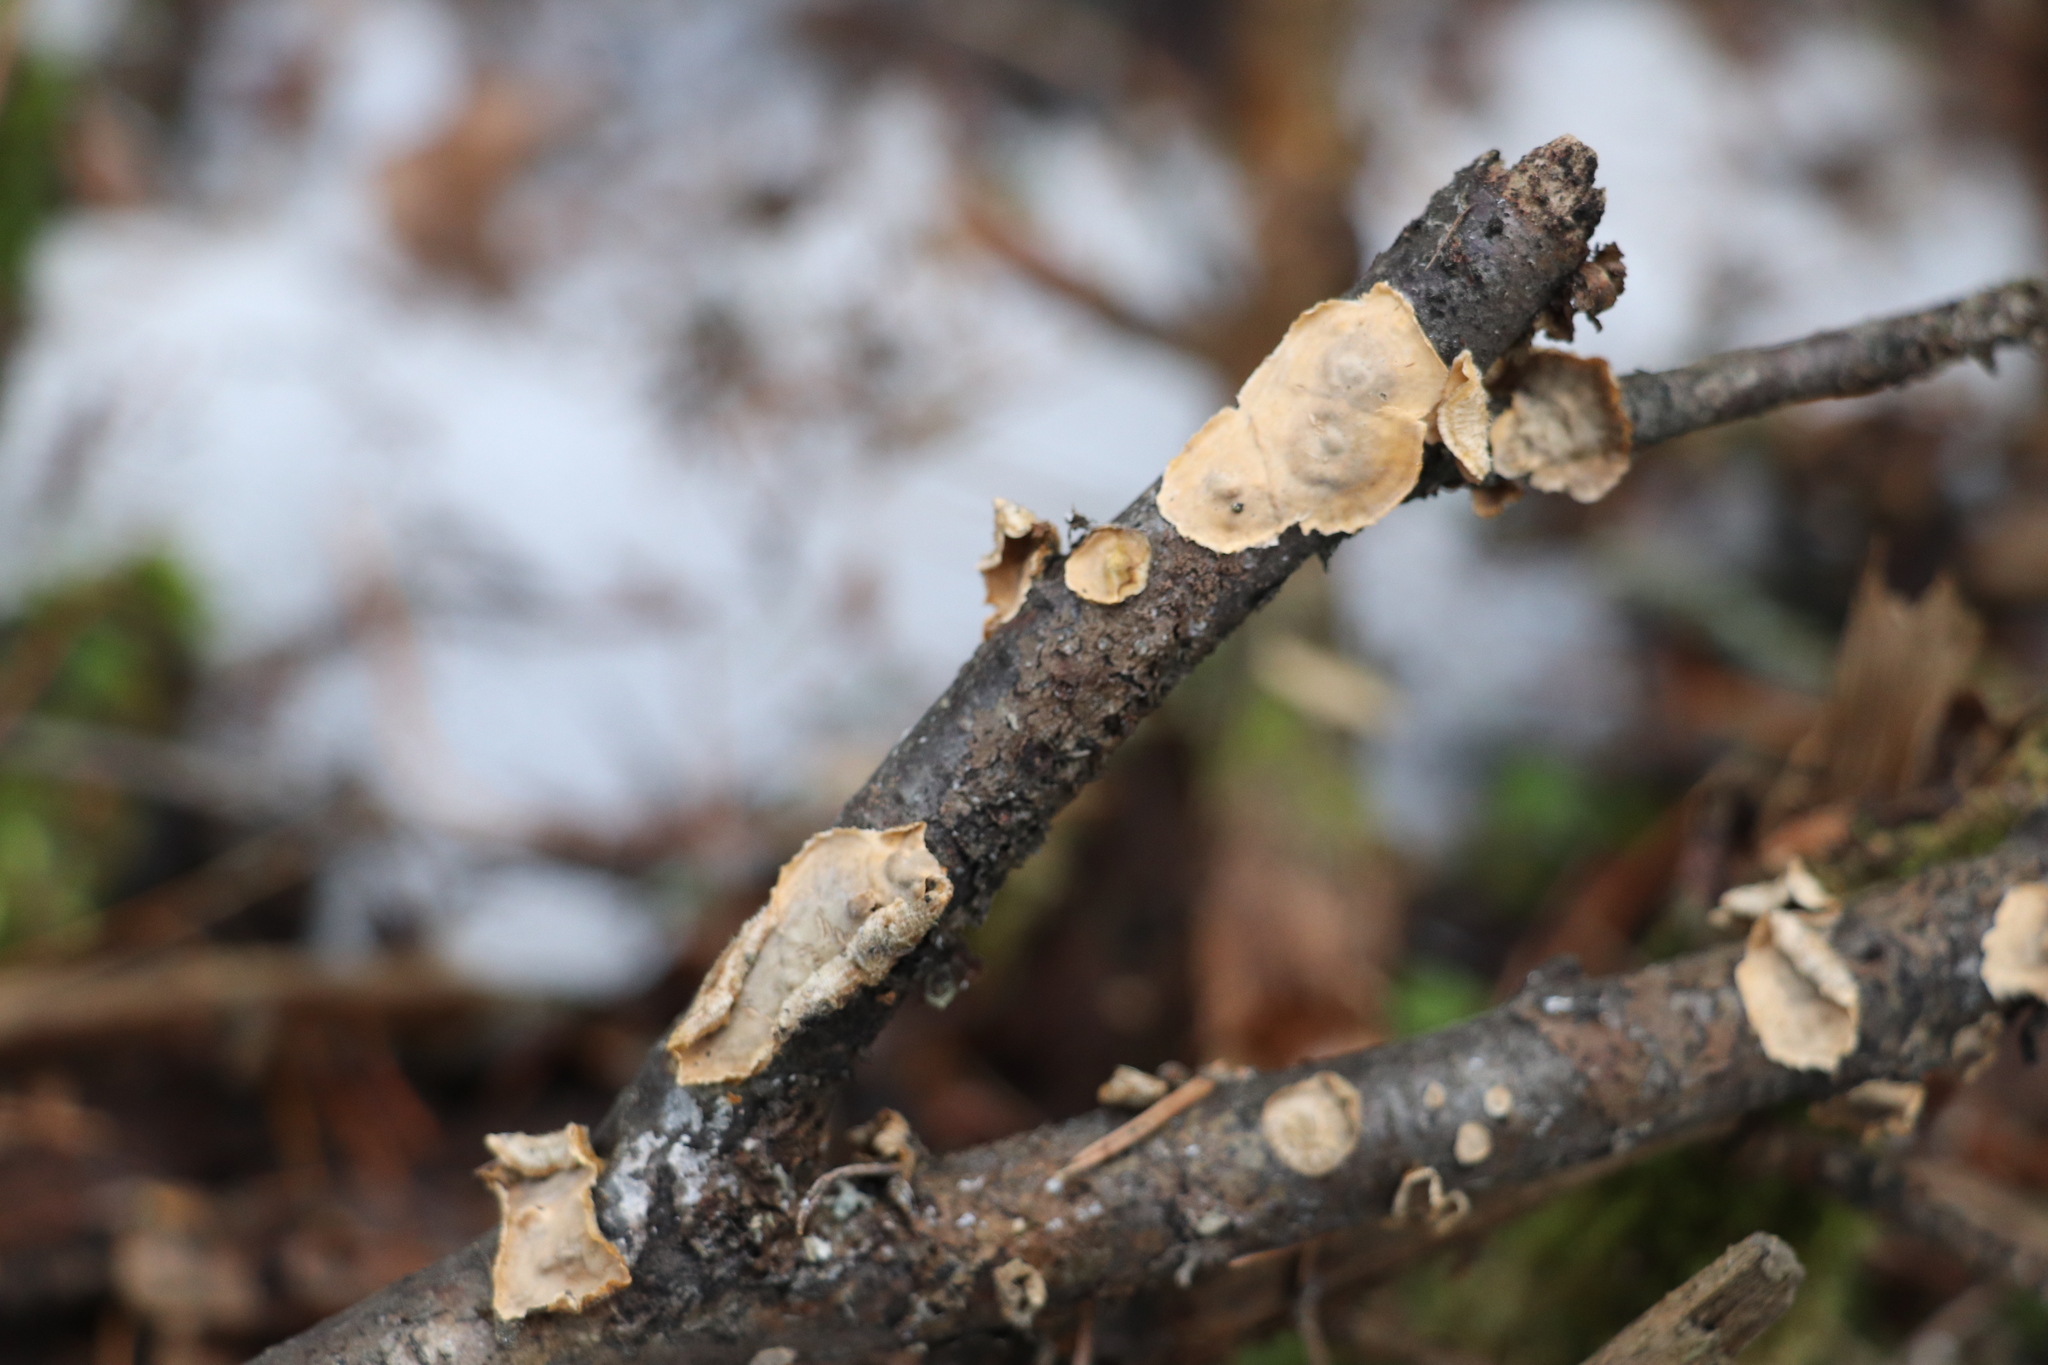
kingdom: Fungi
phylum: Basidiomycota
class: Agaricomycetes
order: Russulales
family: Stereaceae
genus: Stereum
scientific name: Stereum hirsutum
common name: Hairy curtain crust
